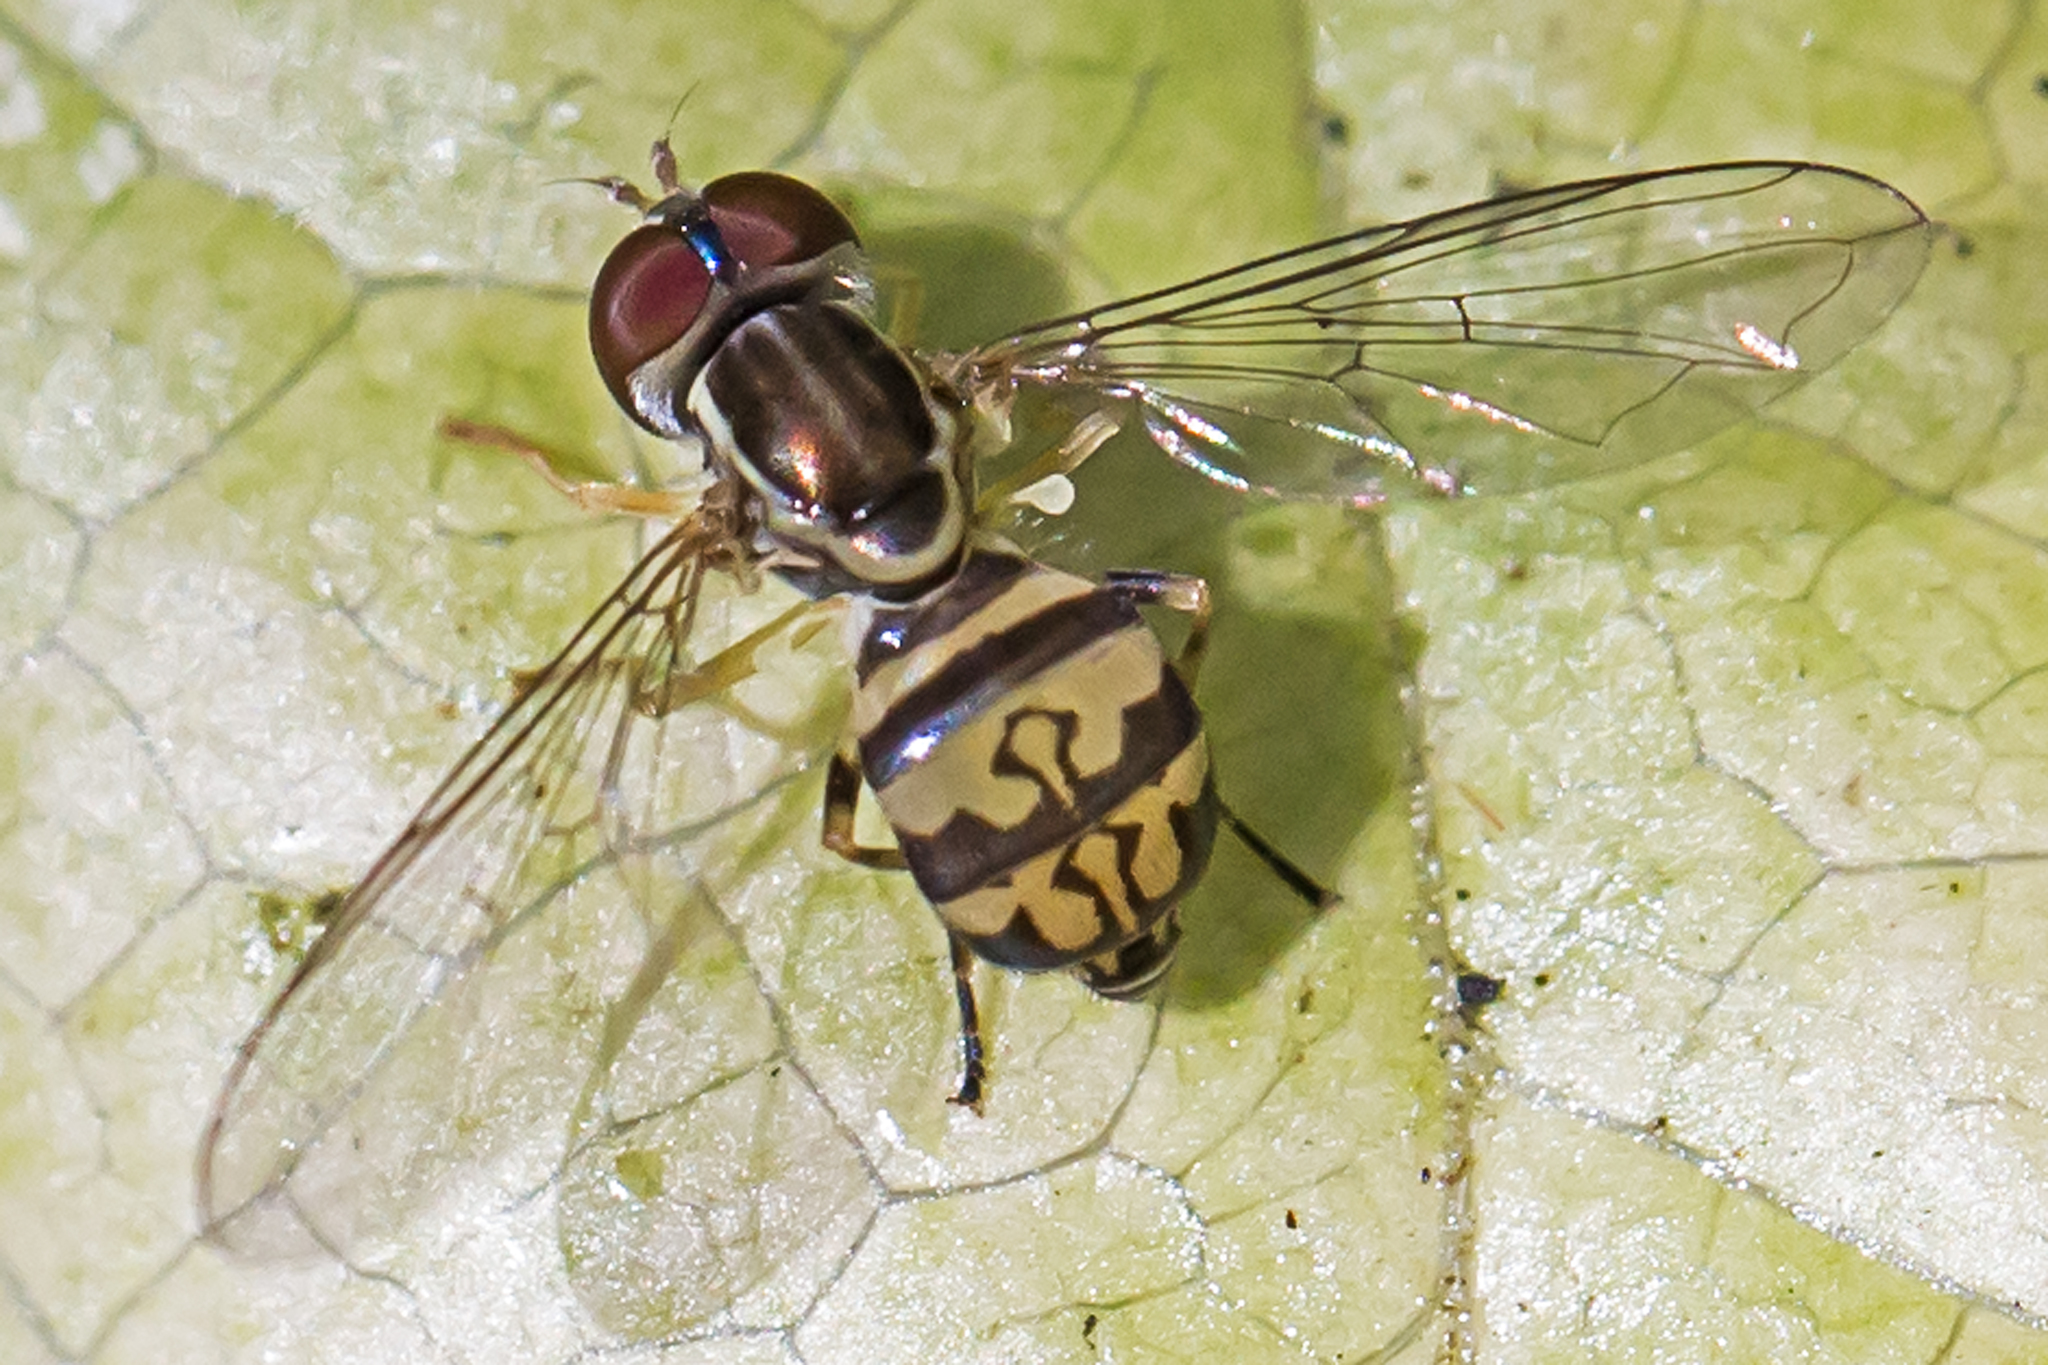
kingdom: Animalia
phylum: Arthropoda
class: Insecta
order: Diptera
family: Syrphidae
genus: Toxomerus
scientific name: Toxomerus geminatus
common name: Eastern calligrapher
